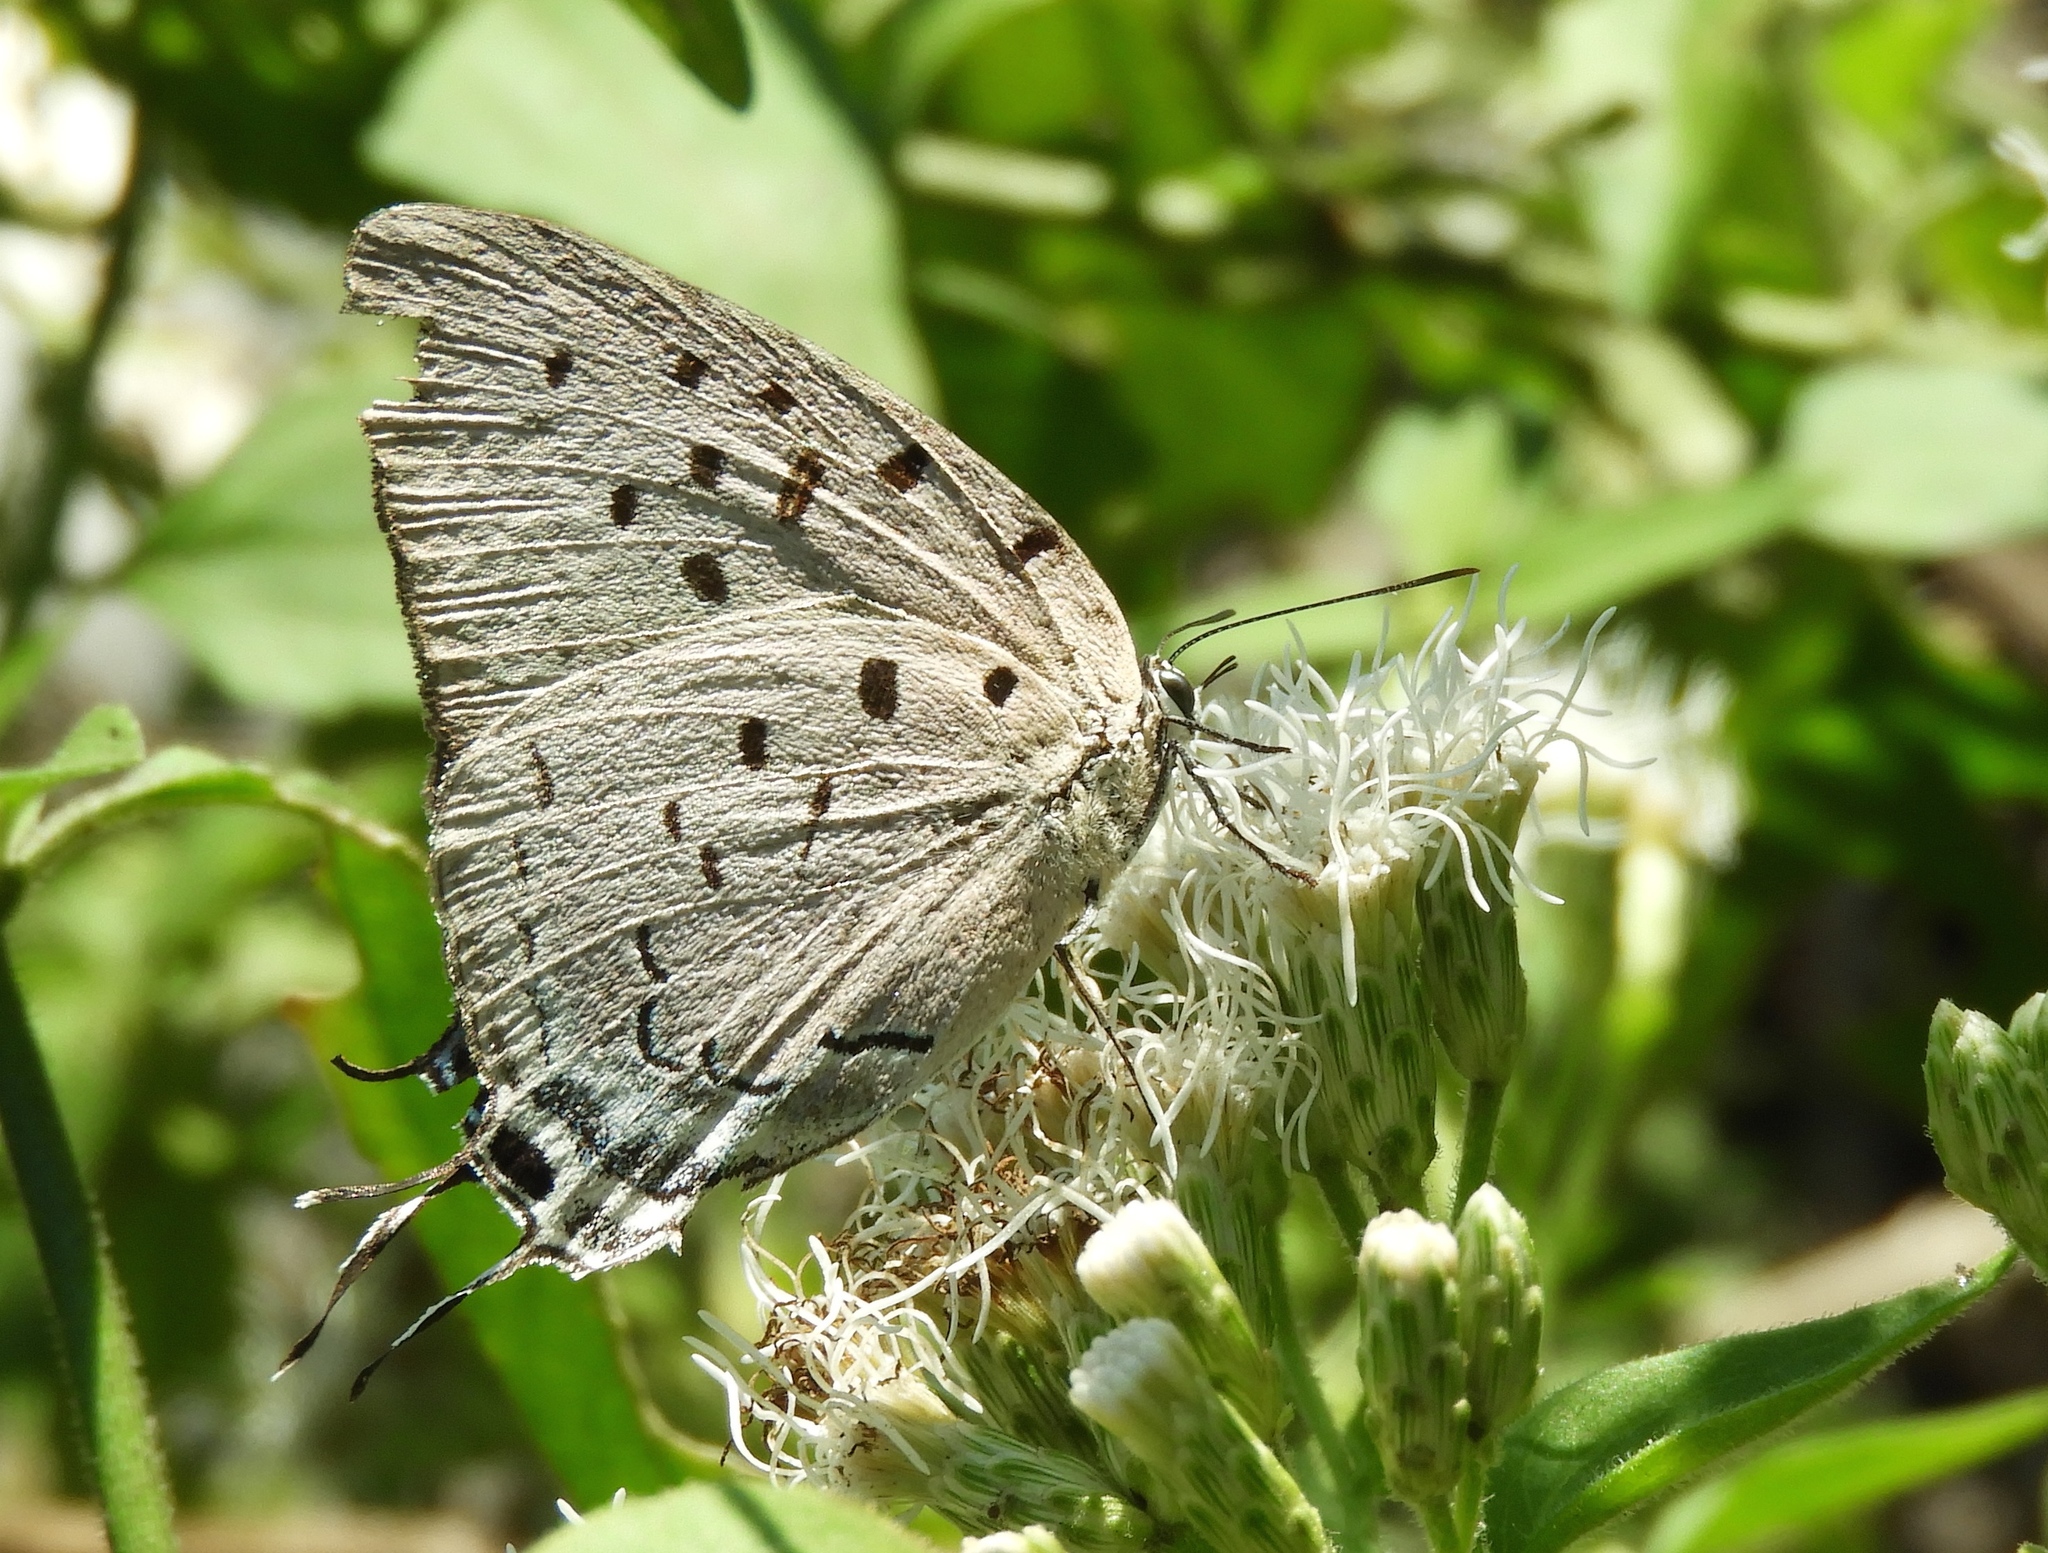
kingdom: Animalia
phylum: Arthropoda
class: Insecta
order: Lepidoptera
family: Lycaenidae
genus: Pseudolycaena
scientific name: Pseudolycaena damo
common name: Sky-blue hairstreak
